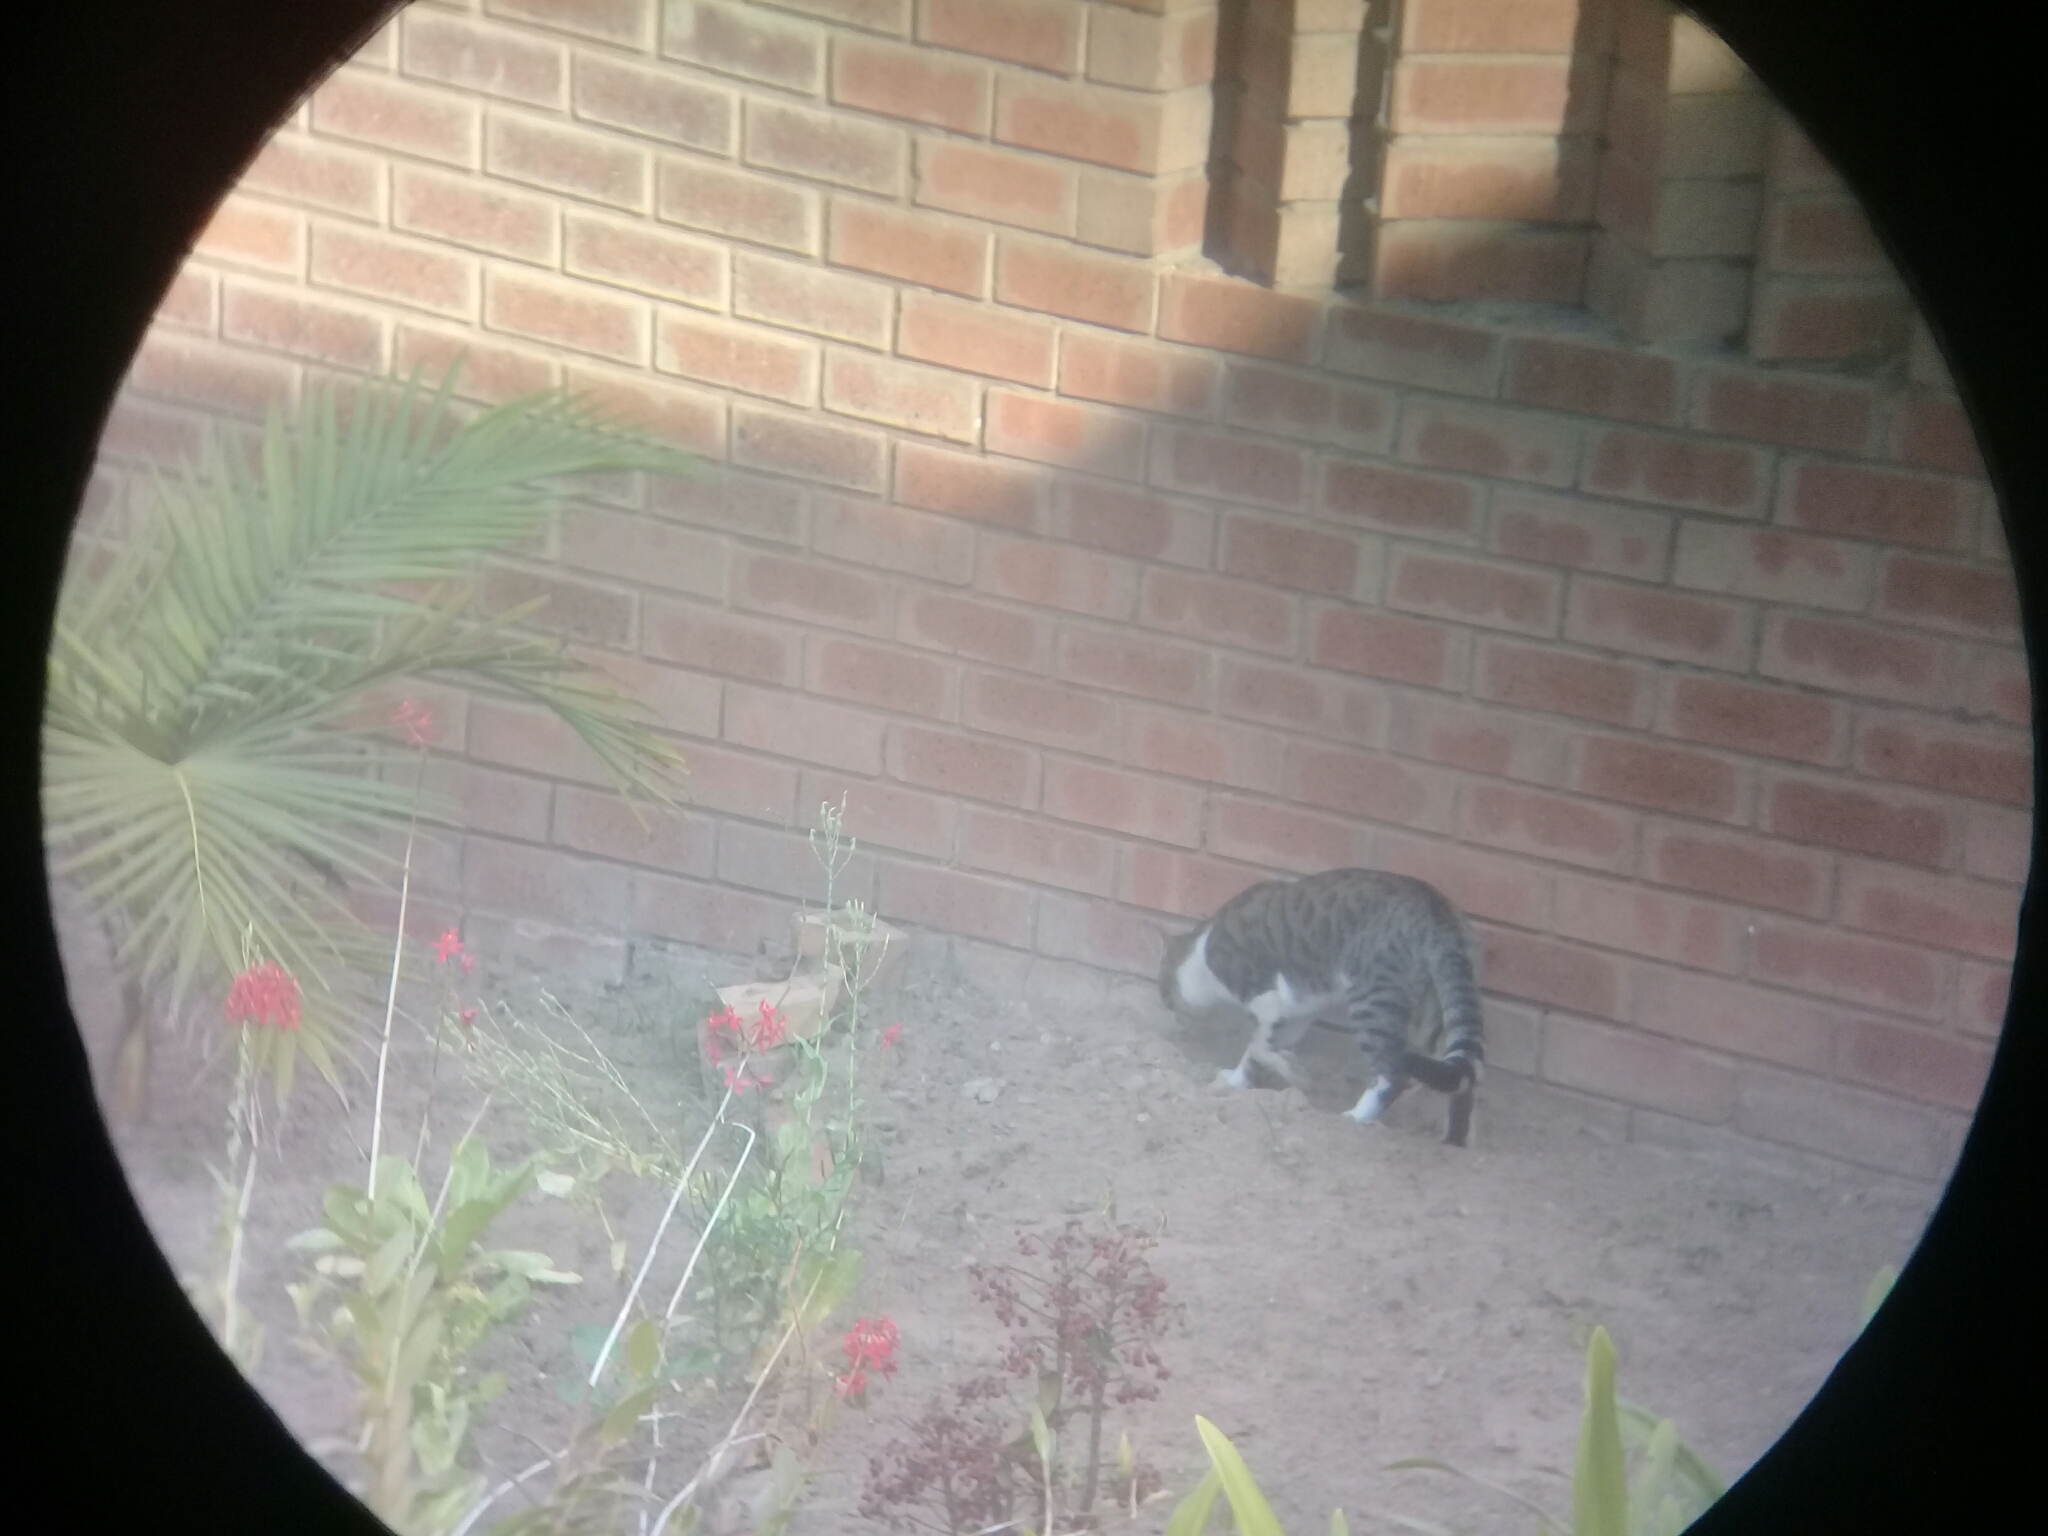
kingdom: Animalia
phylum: Chordata
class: Mammalia
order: Carnivora
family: Felidae
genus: Felis
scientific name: Felis catus
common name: Domestic cat
